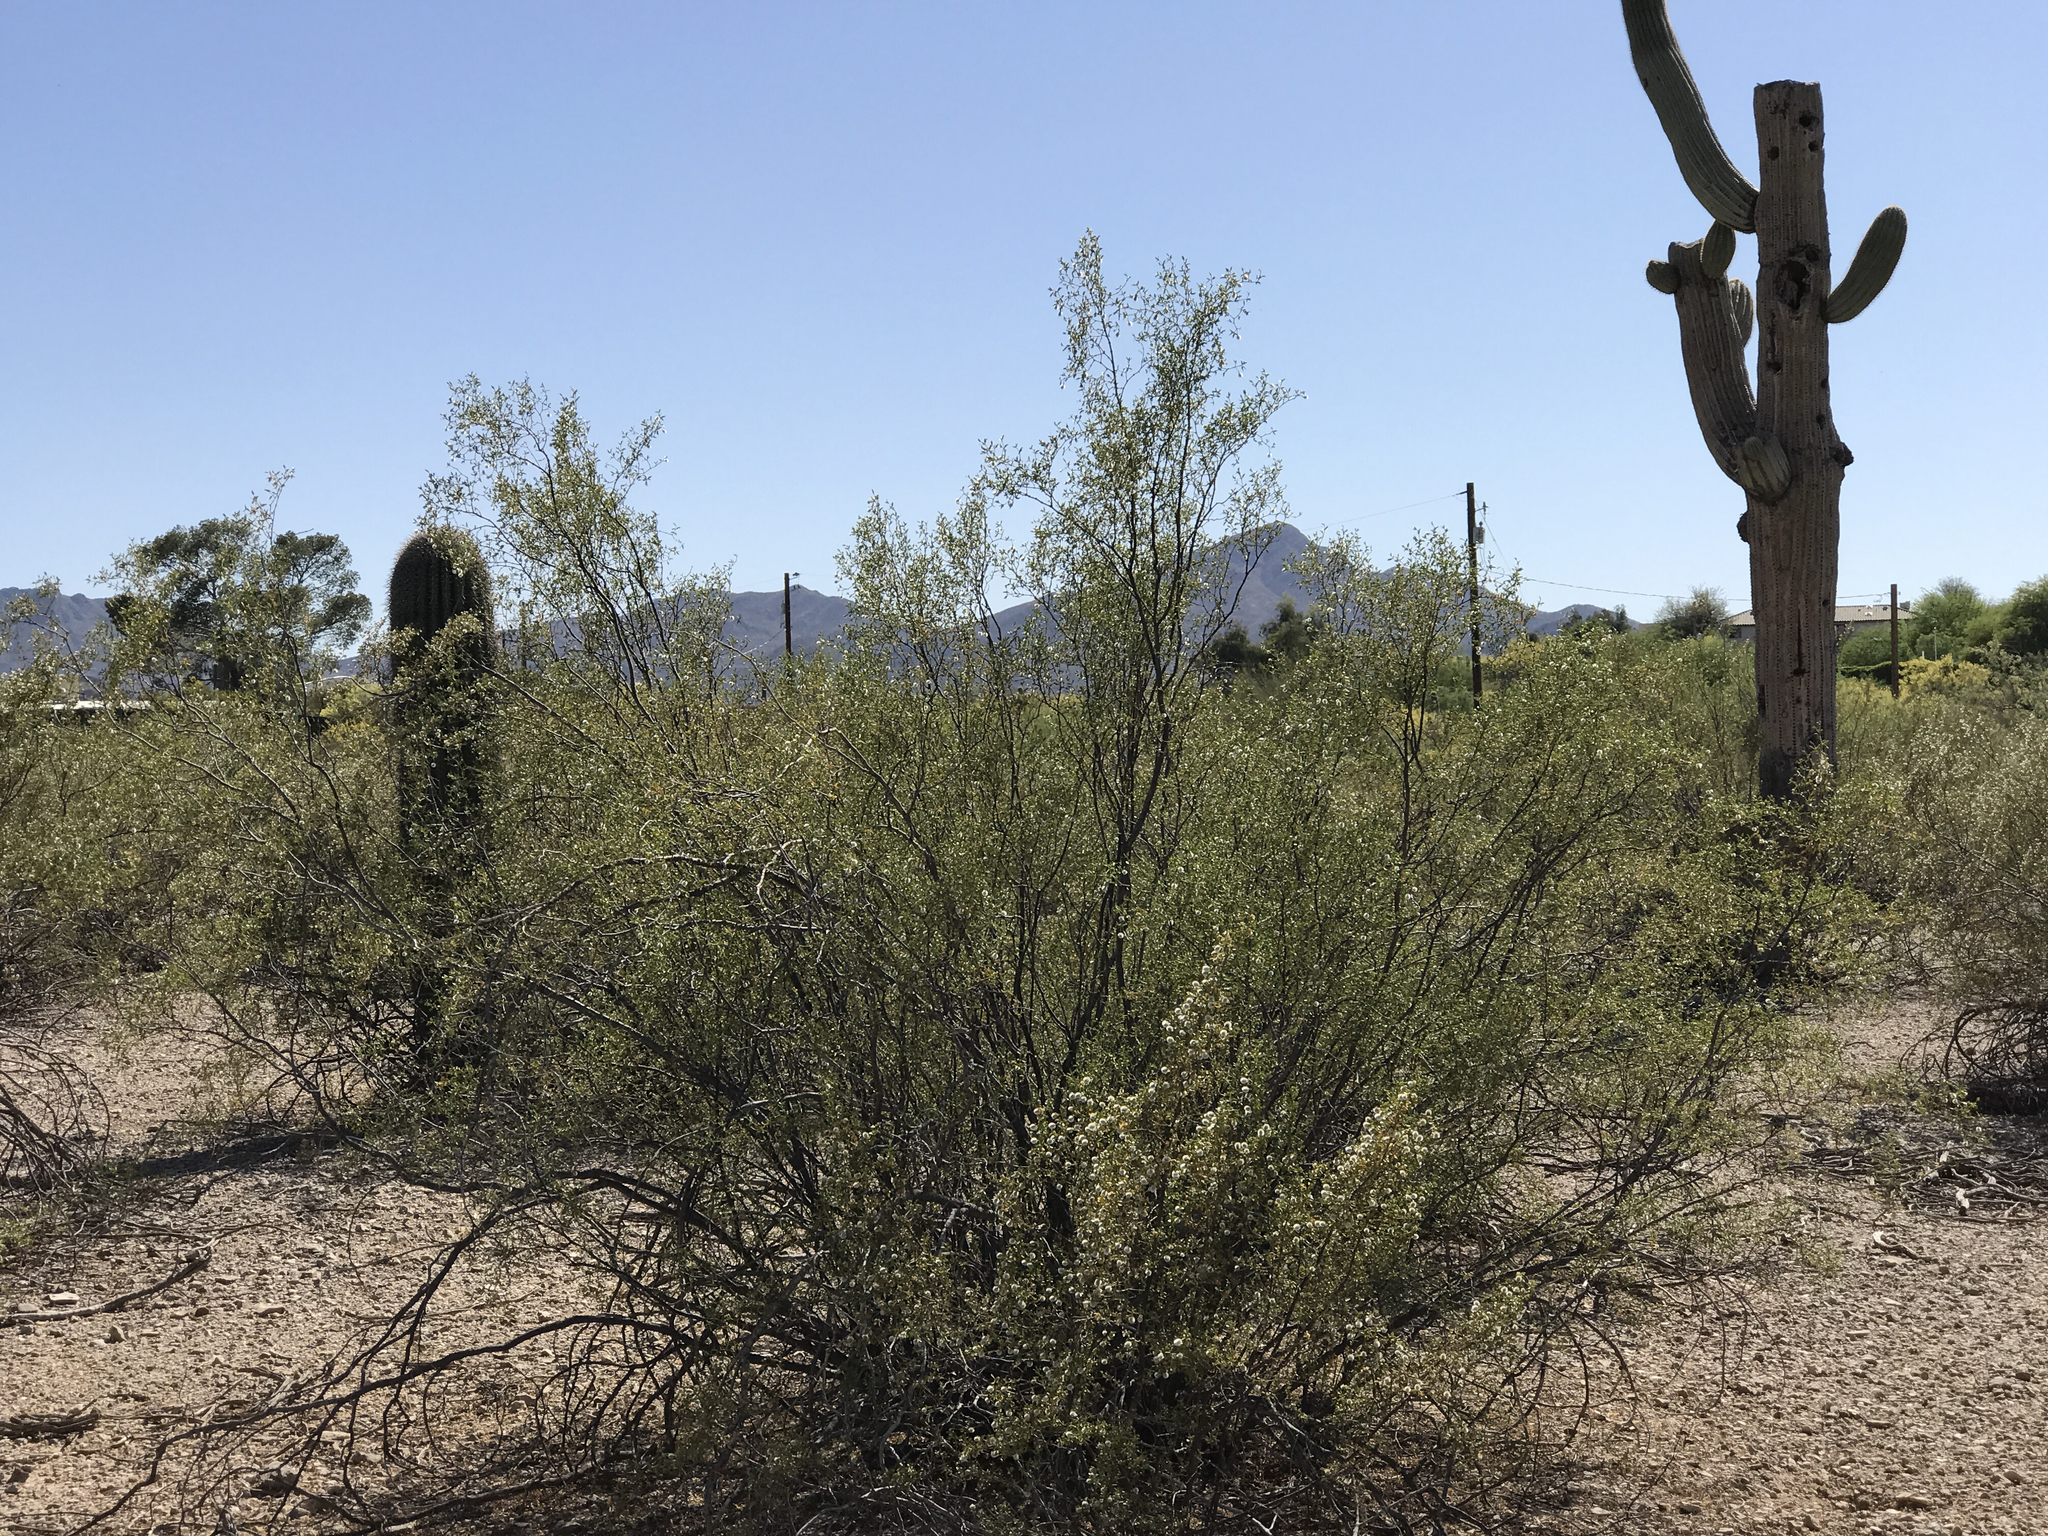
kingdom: Plantae
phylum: Tracheophyta
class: Magnoliopsida
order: Zygophyllales
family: Zygophyllaceae
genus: Larrea
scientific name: Larrea tridentata
